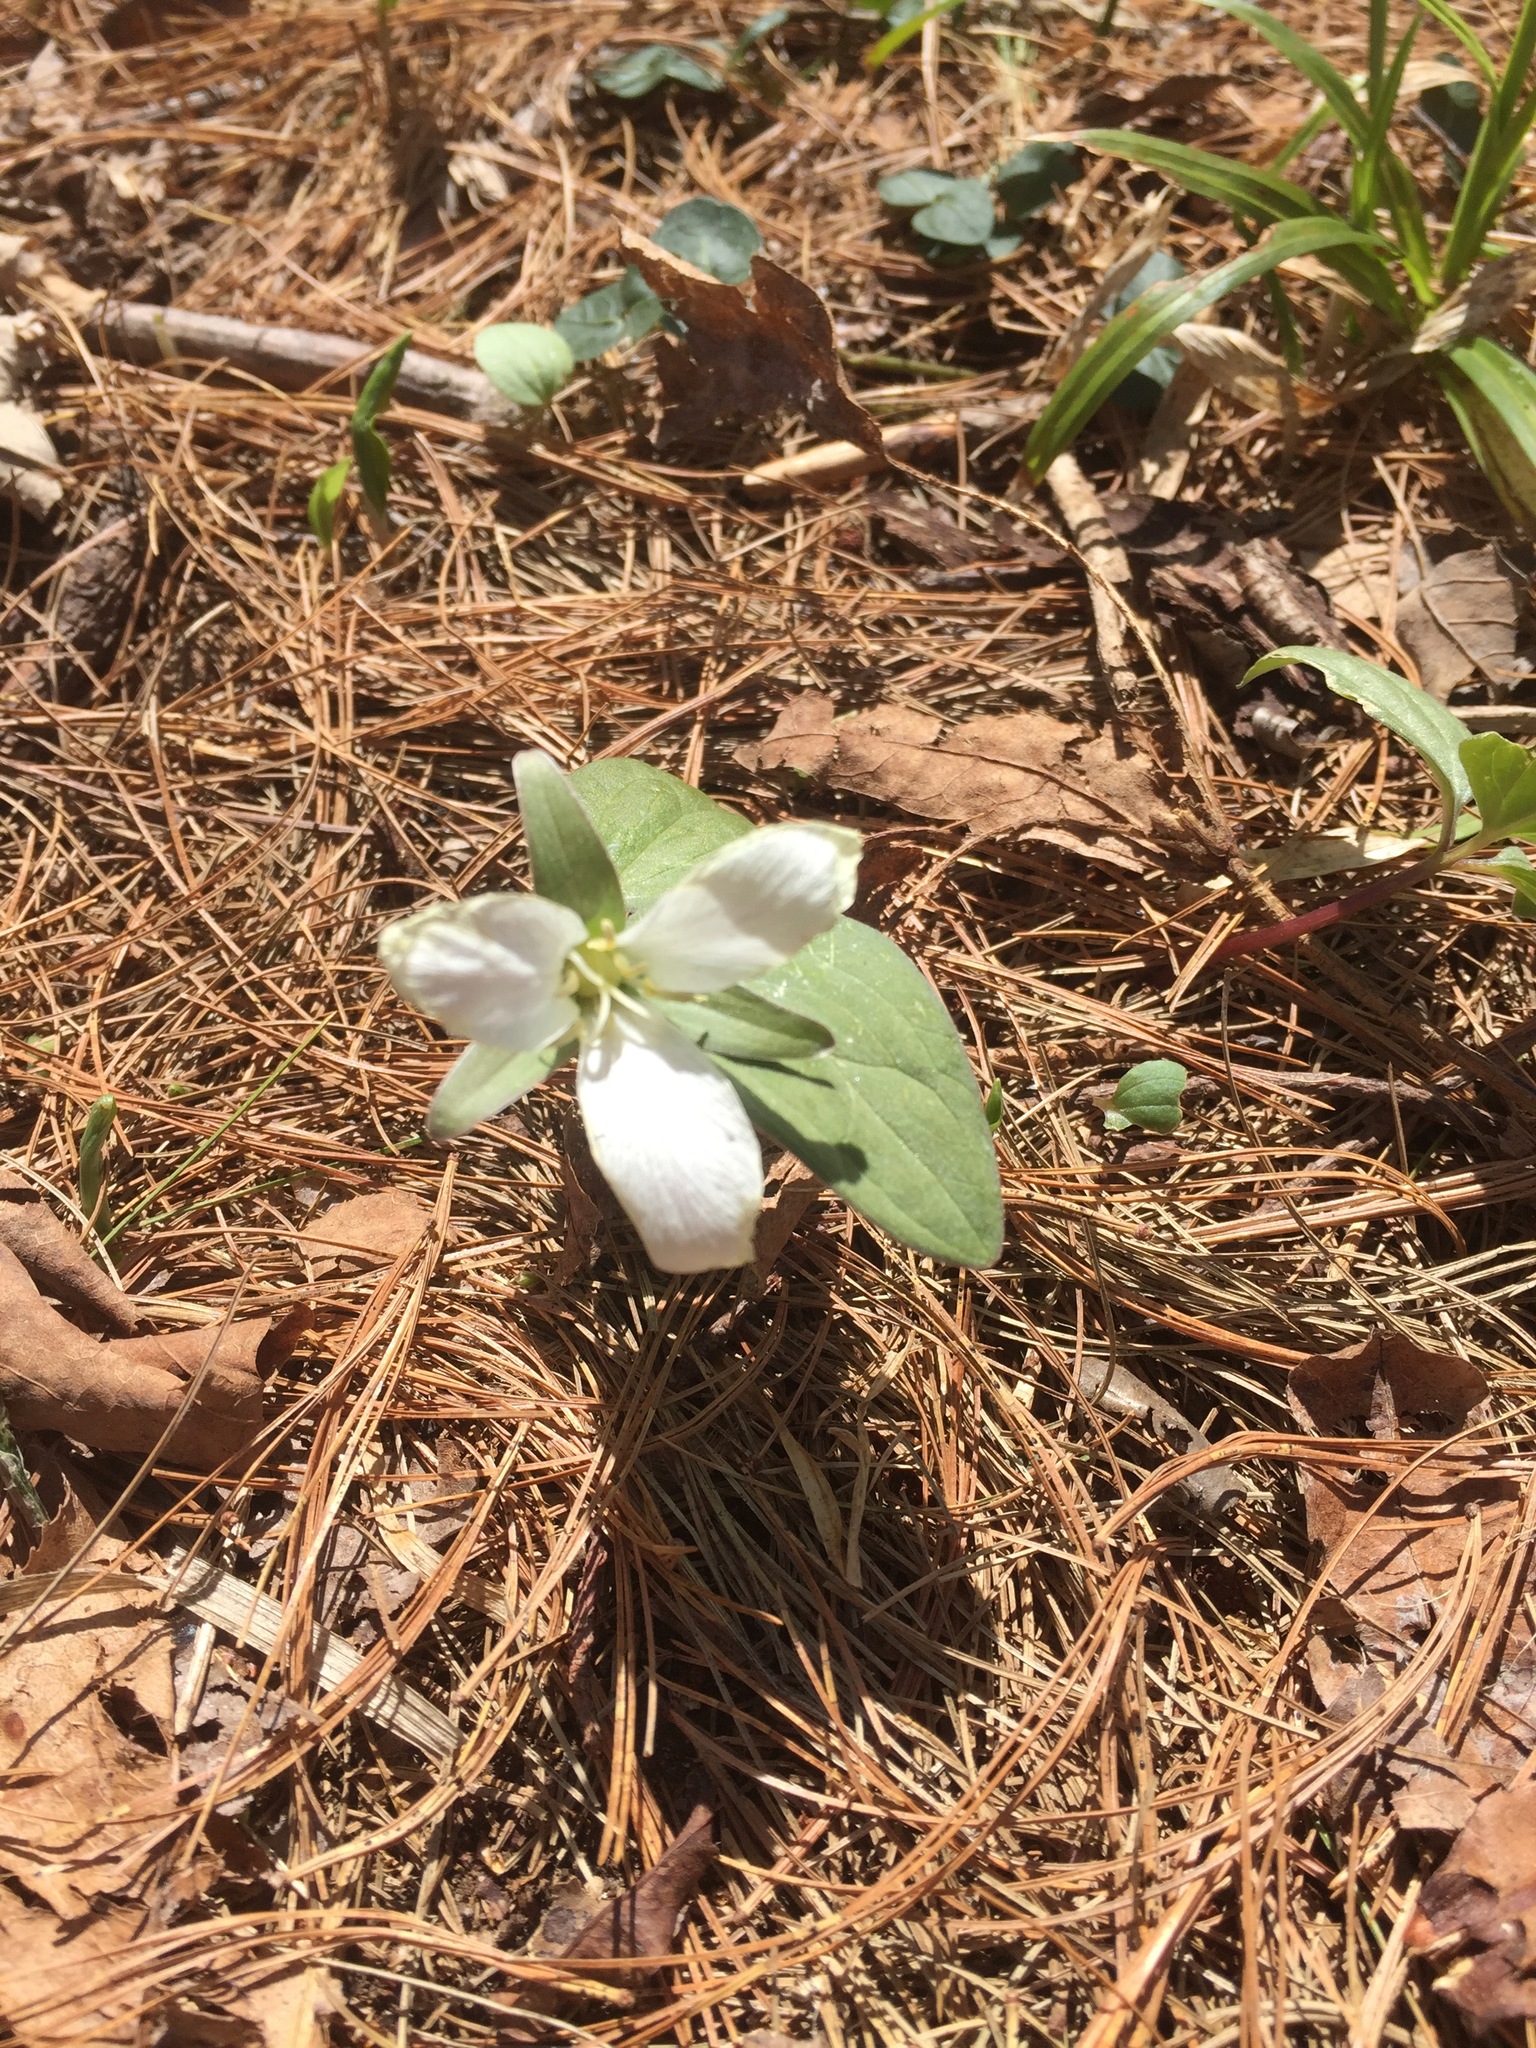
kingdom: Plantae
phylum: Tracheophyta
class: Liliopsida
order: Liliales
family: Melanthiaceae
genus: Trillium
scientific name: Trillium nivale
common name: Dwarf white trillium
